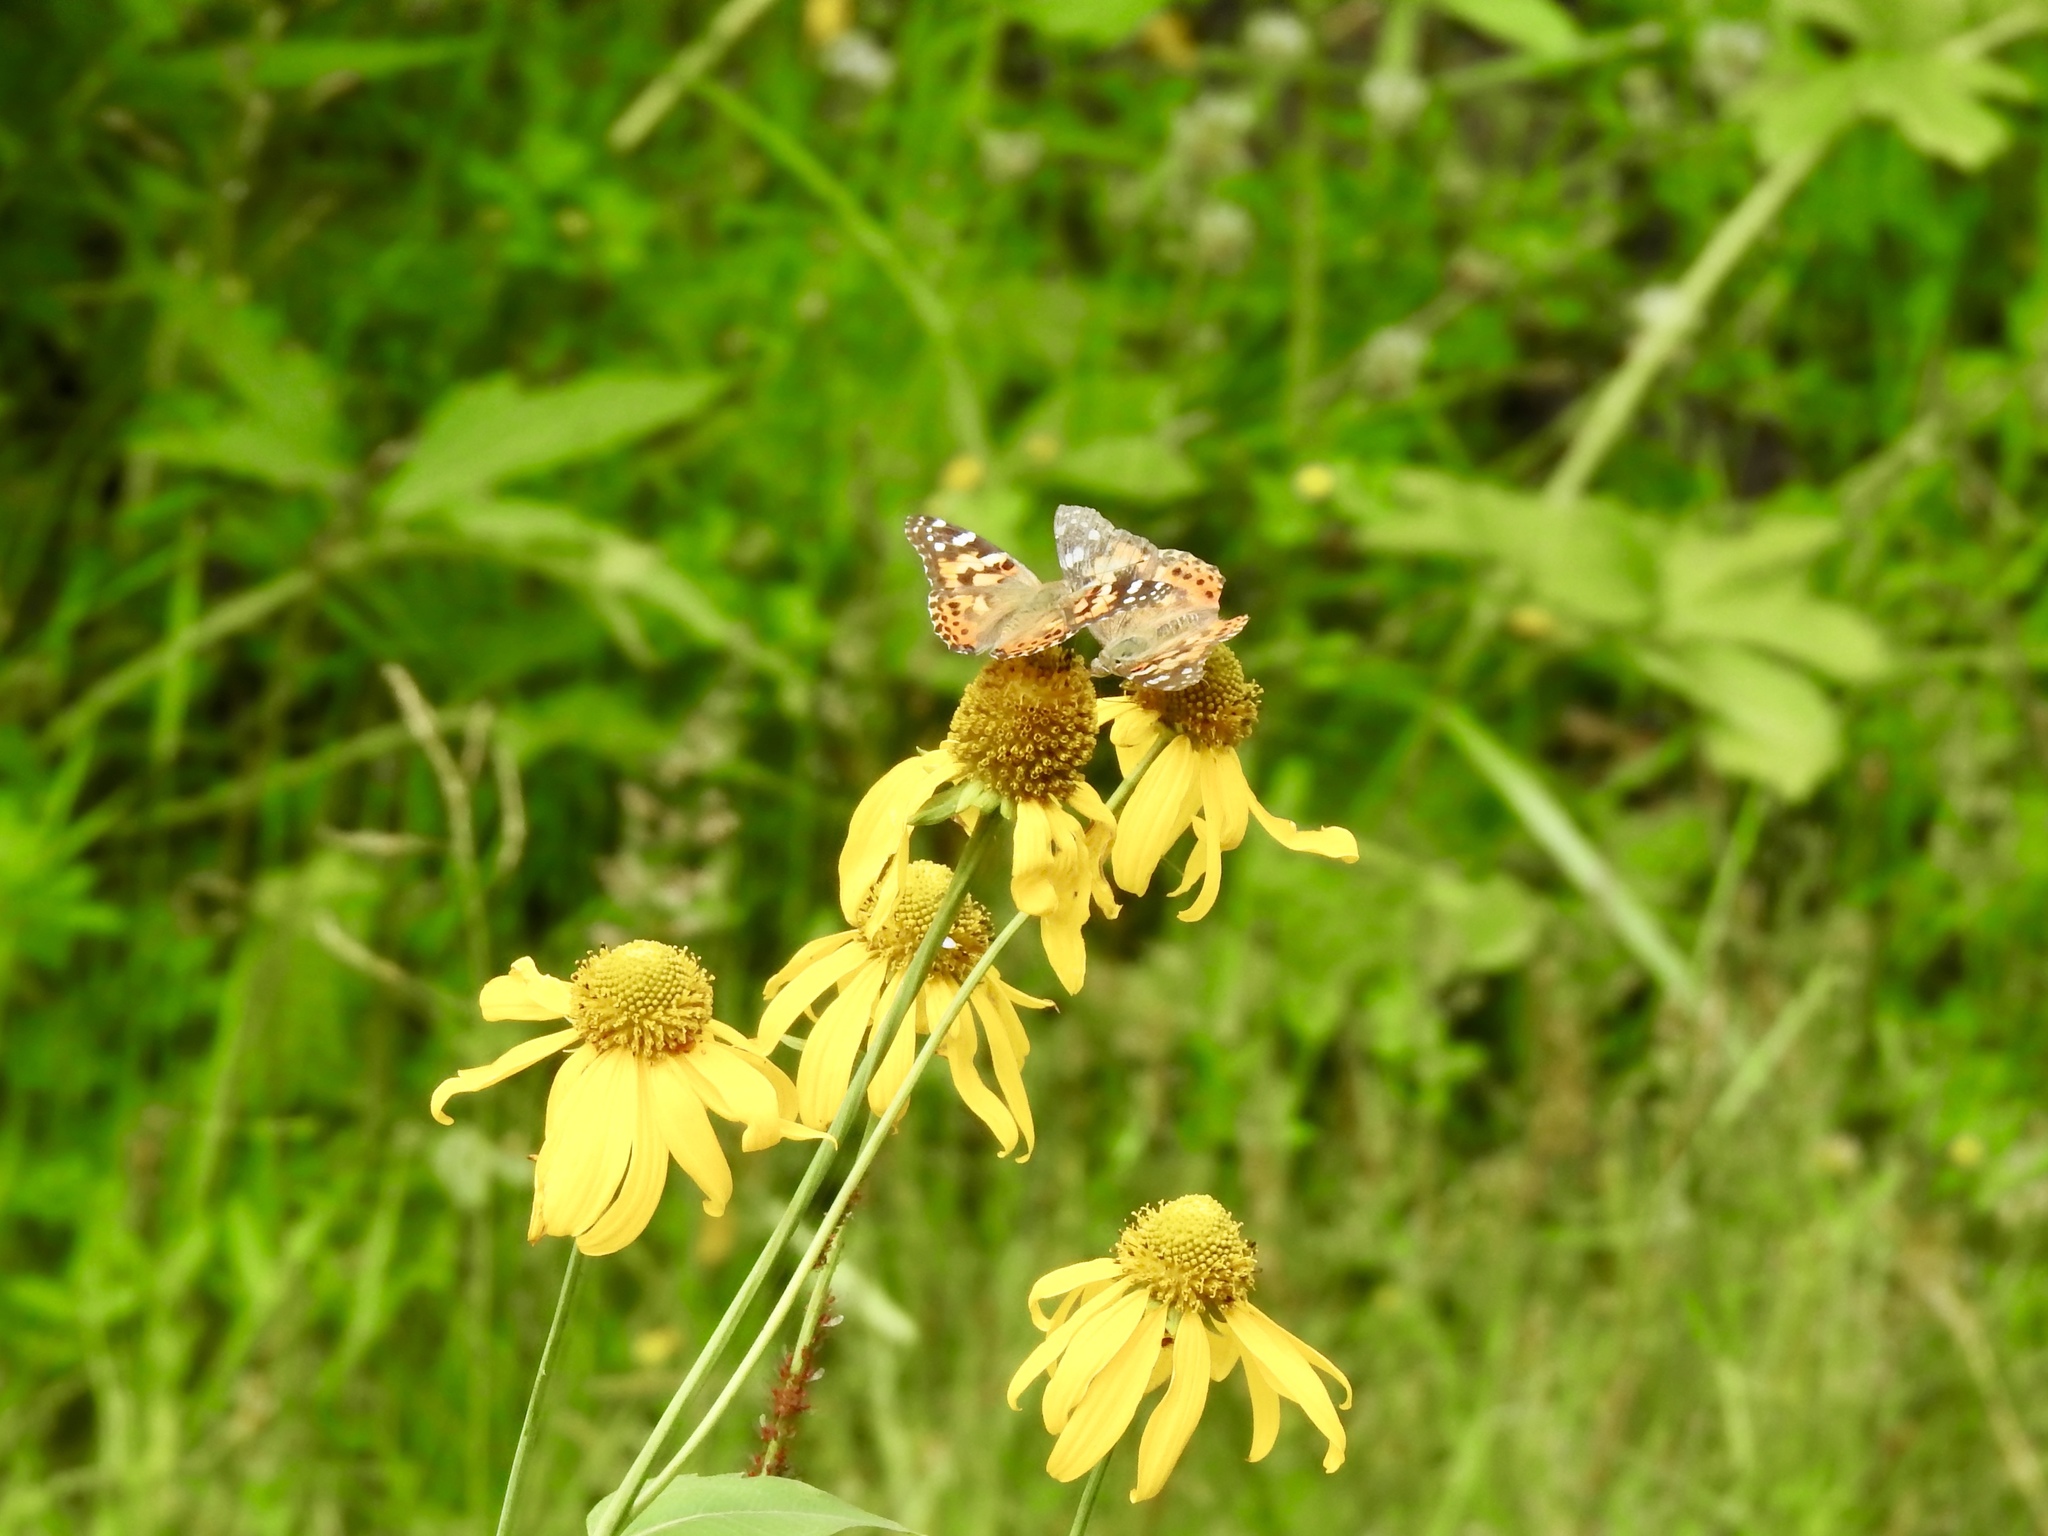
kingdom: Animalia
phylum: Arthropoda
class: Insecta
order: Lepidoptera
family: Nymphalidae
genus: Vanessa
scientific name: Vanessa cardui
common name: Painted lady
